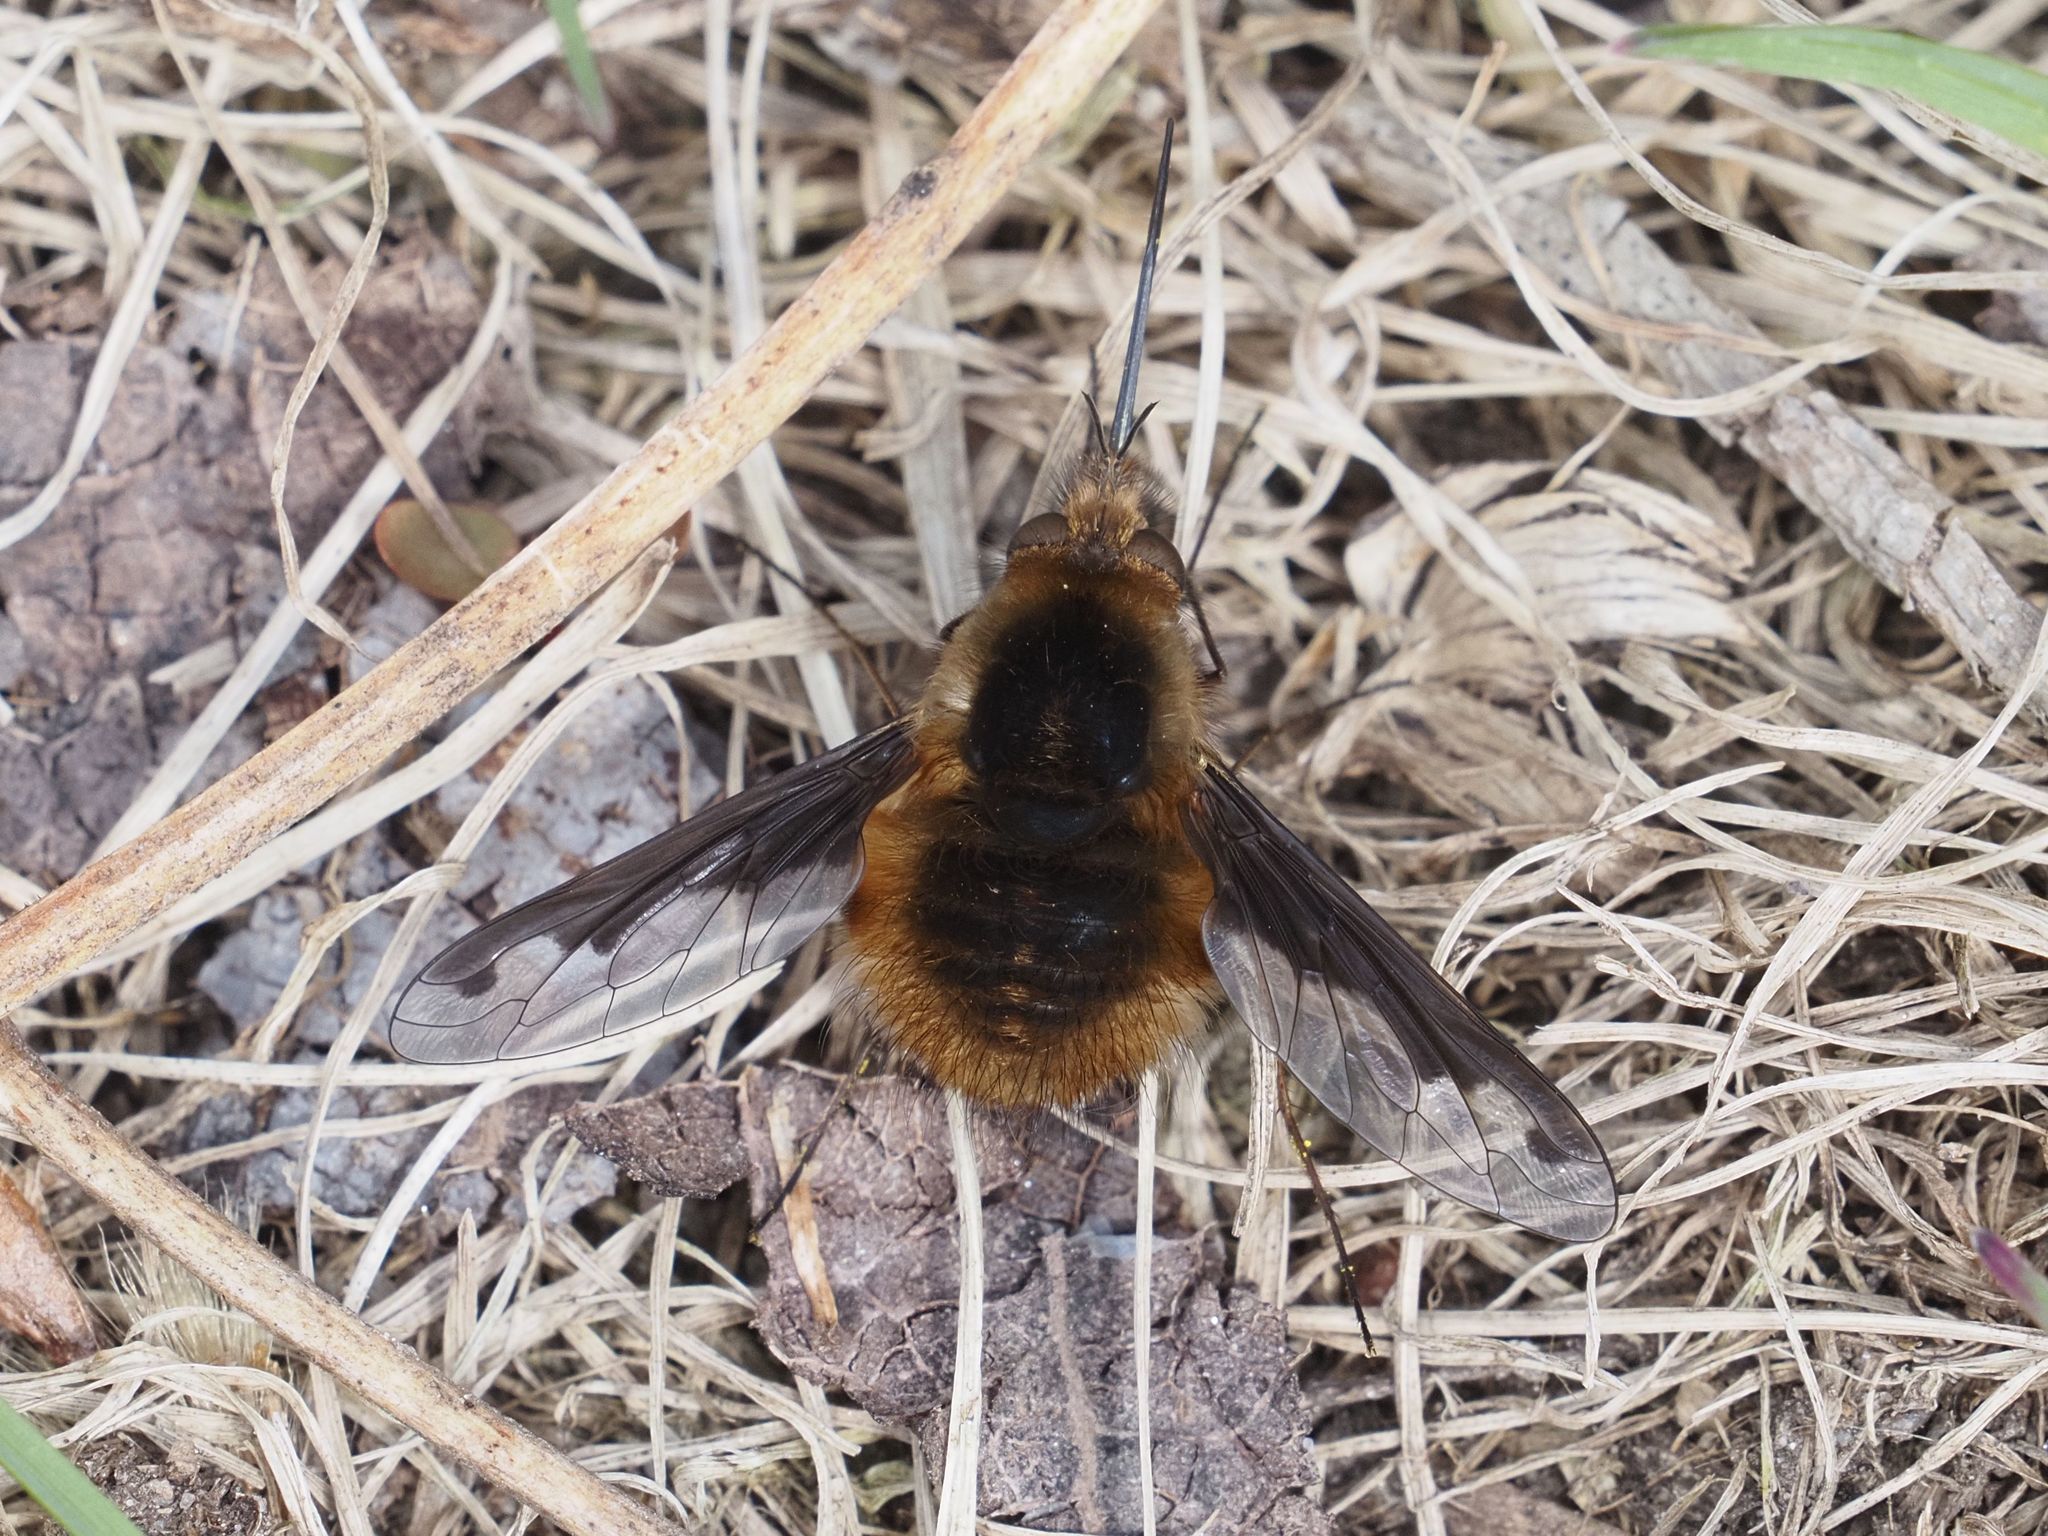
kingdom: Animalia
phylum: Arthropoda
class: Insecta
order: Diptera
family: Bombyliidae
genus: Bombylius
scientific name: Bombylius major
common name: Bee fly
